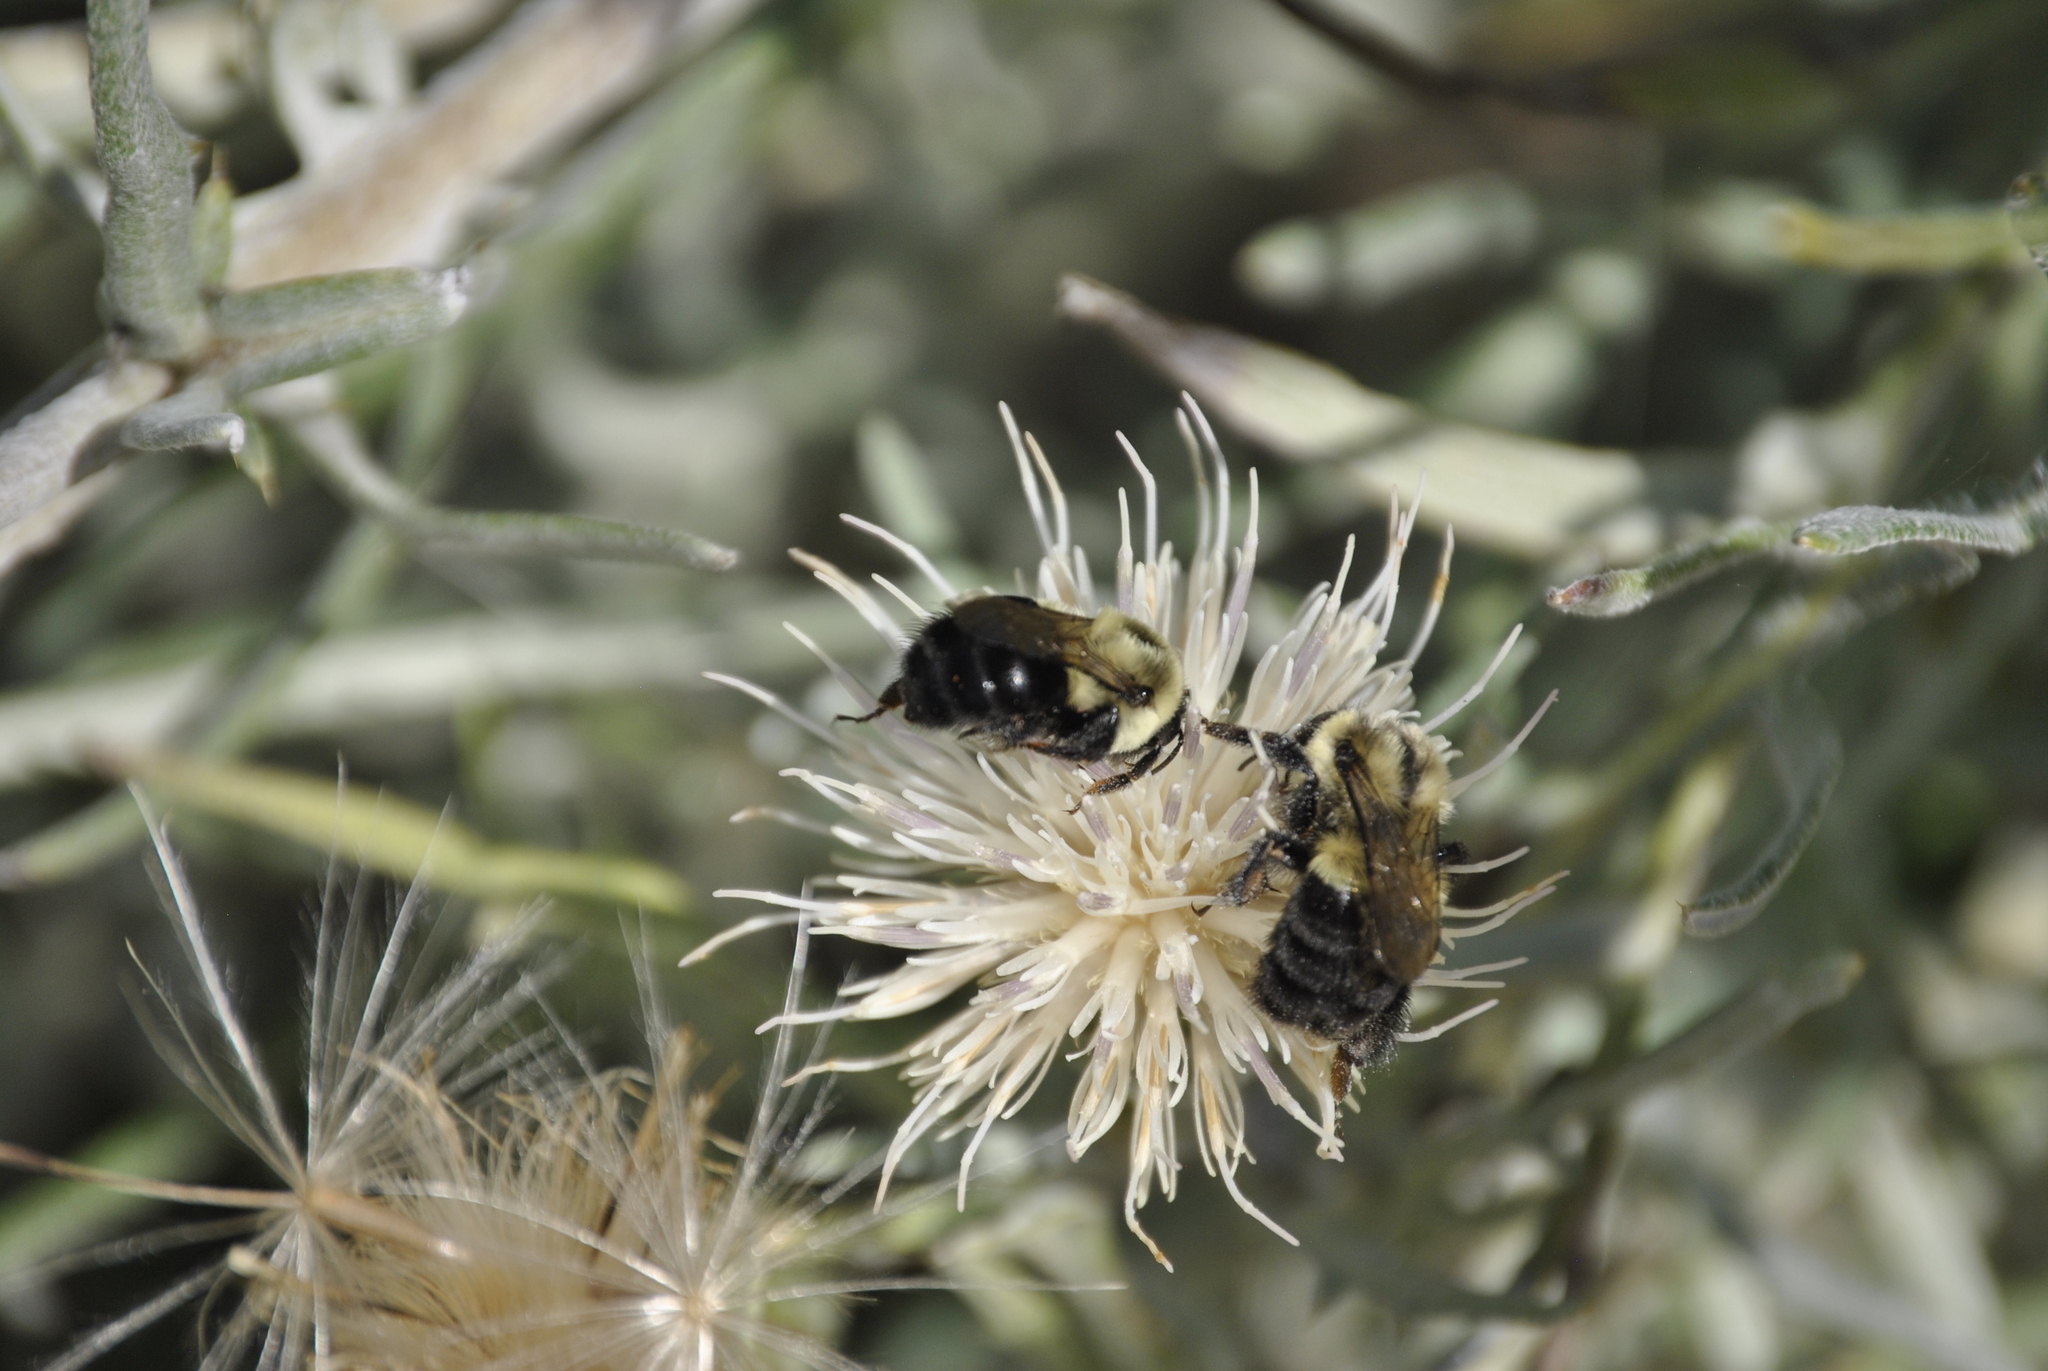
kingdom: Animalia
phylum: Arthropoda
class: Insecta
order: Hymenoptera
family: Apidae
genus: Bombus
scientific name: Bombus impatiens
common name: Common eastern bumble bee
